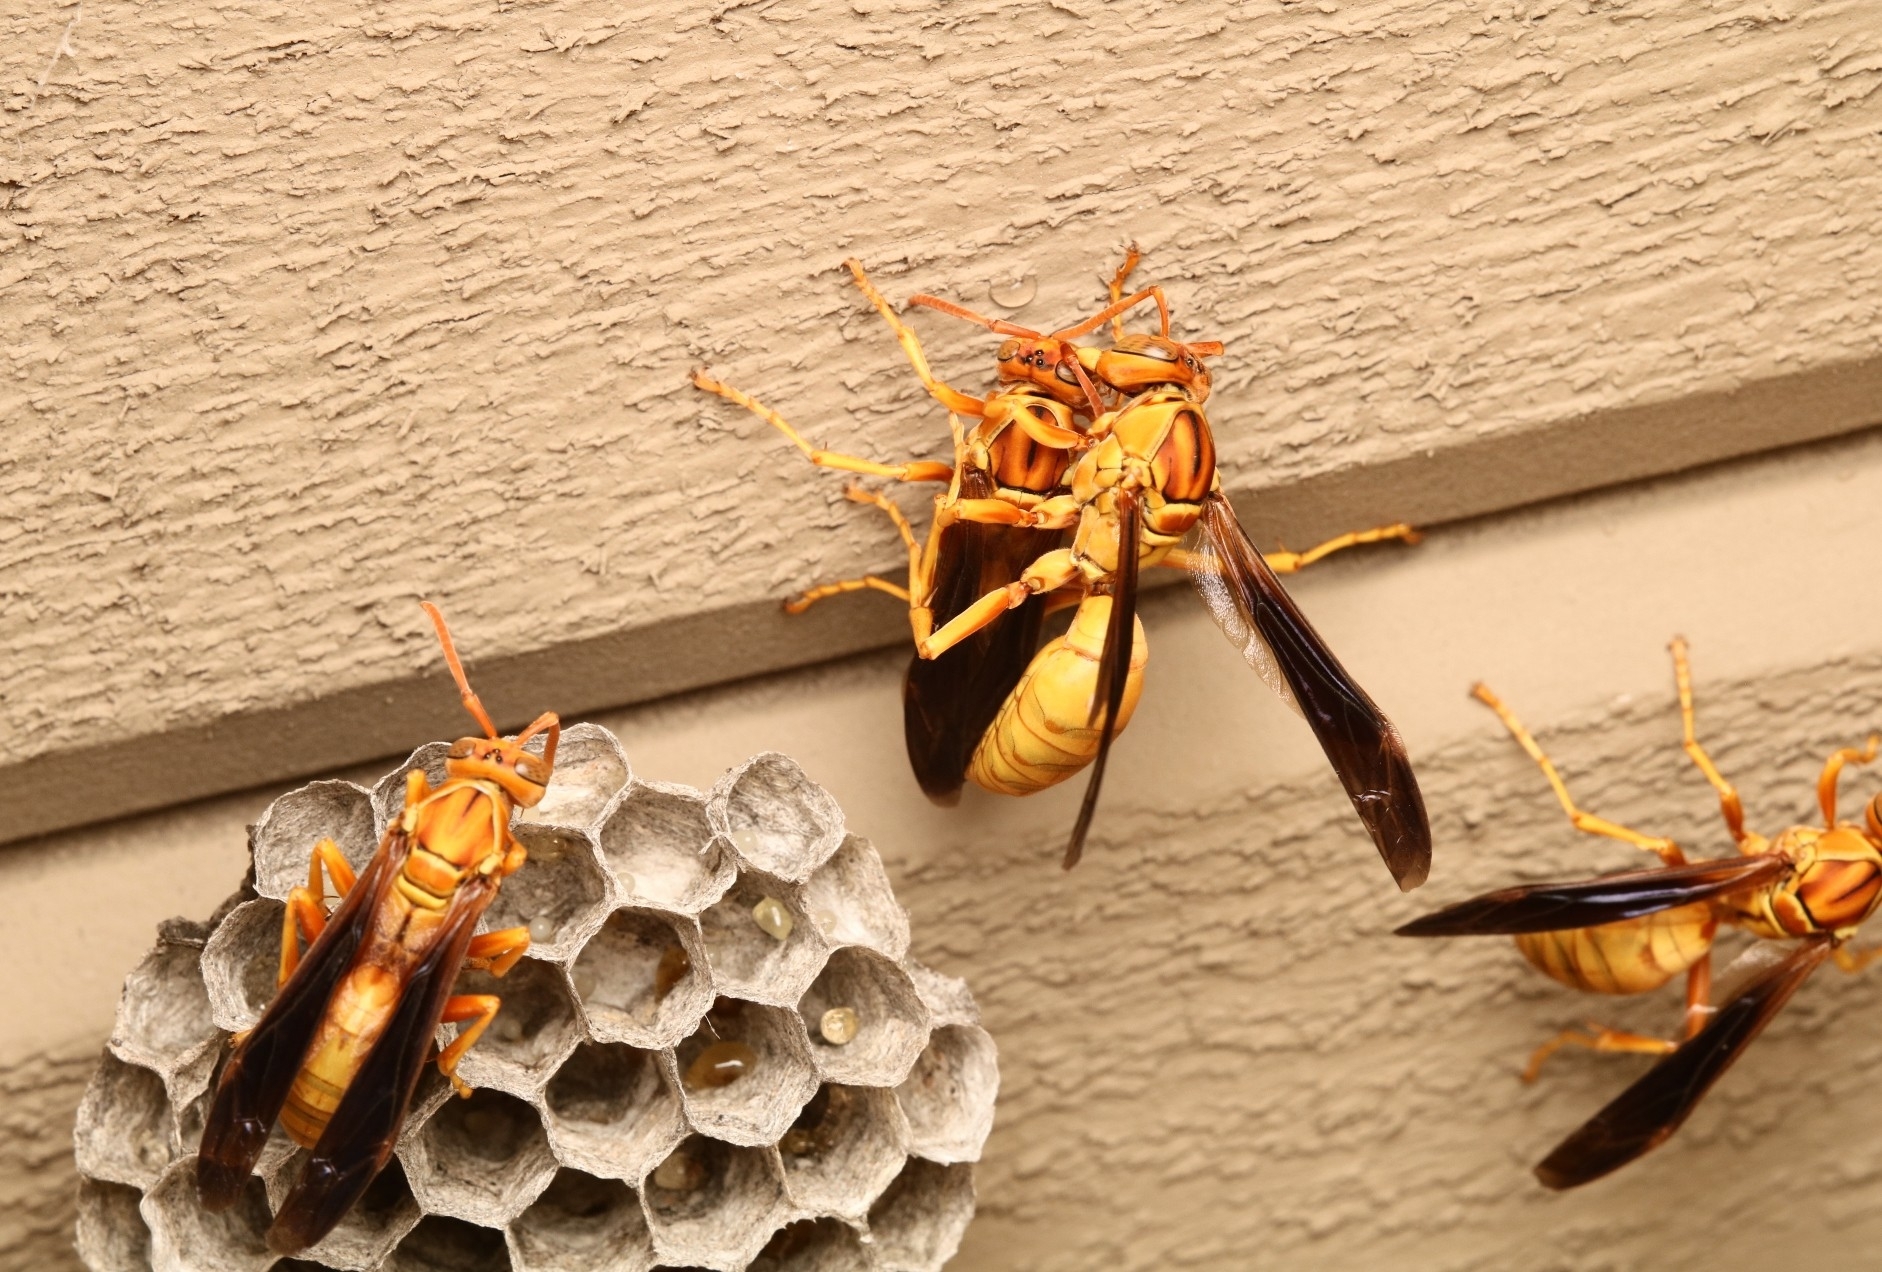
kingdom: Animalia
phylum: Arthropoda
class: Insecta
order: Hymenoptera
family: Eumenidae
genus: Polistes
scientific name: Polistes flavus
